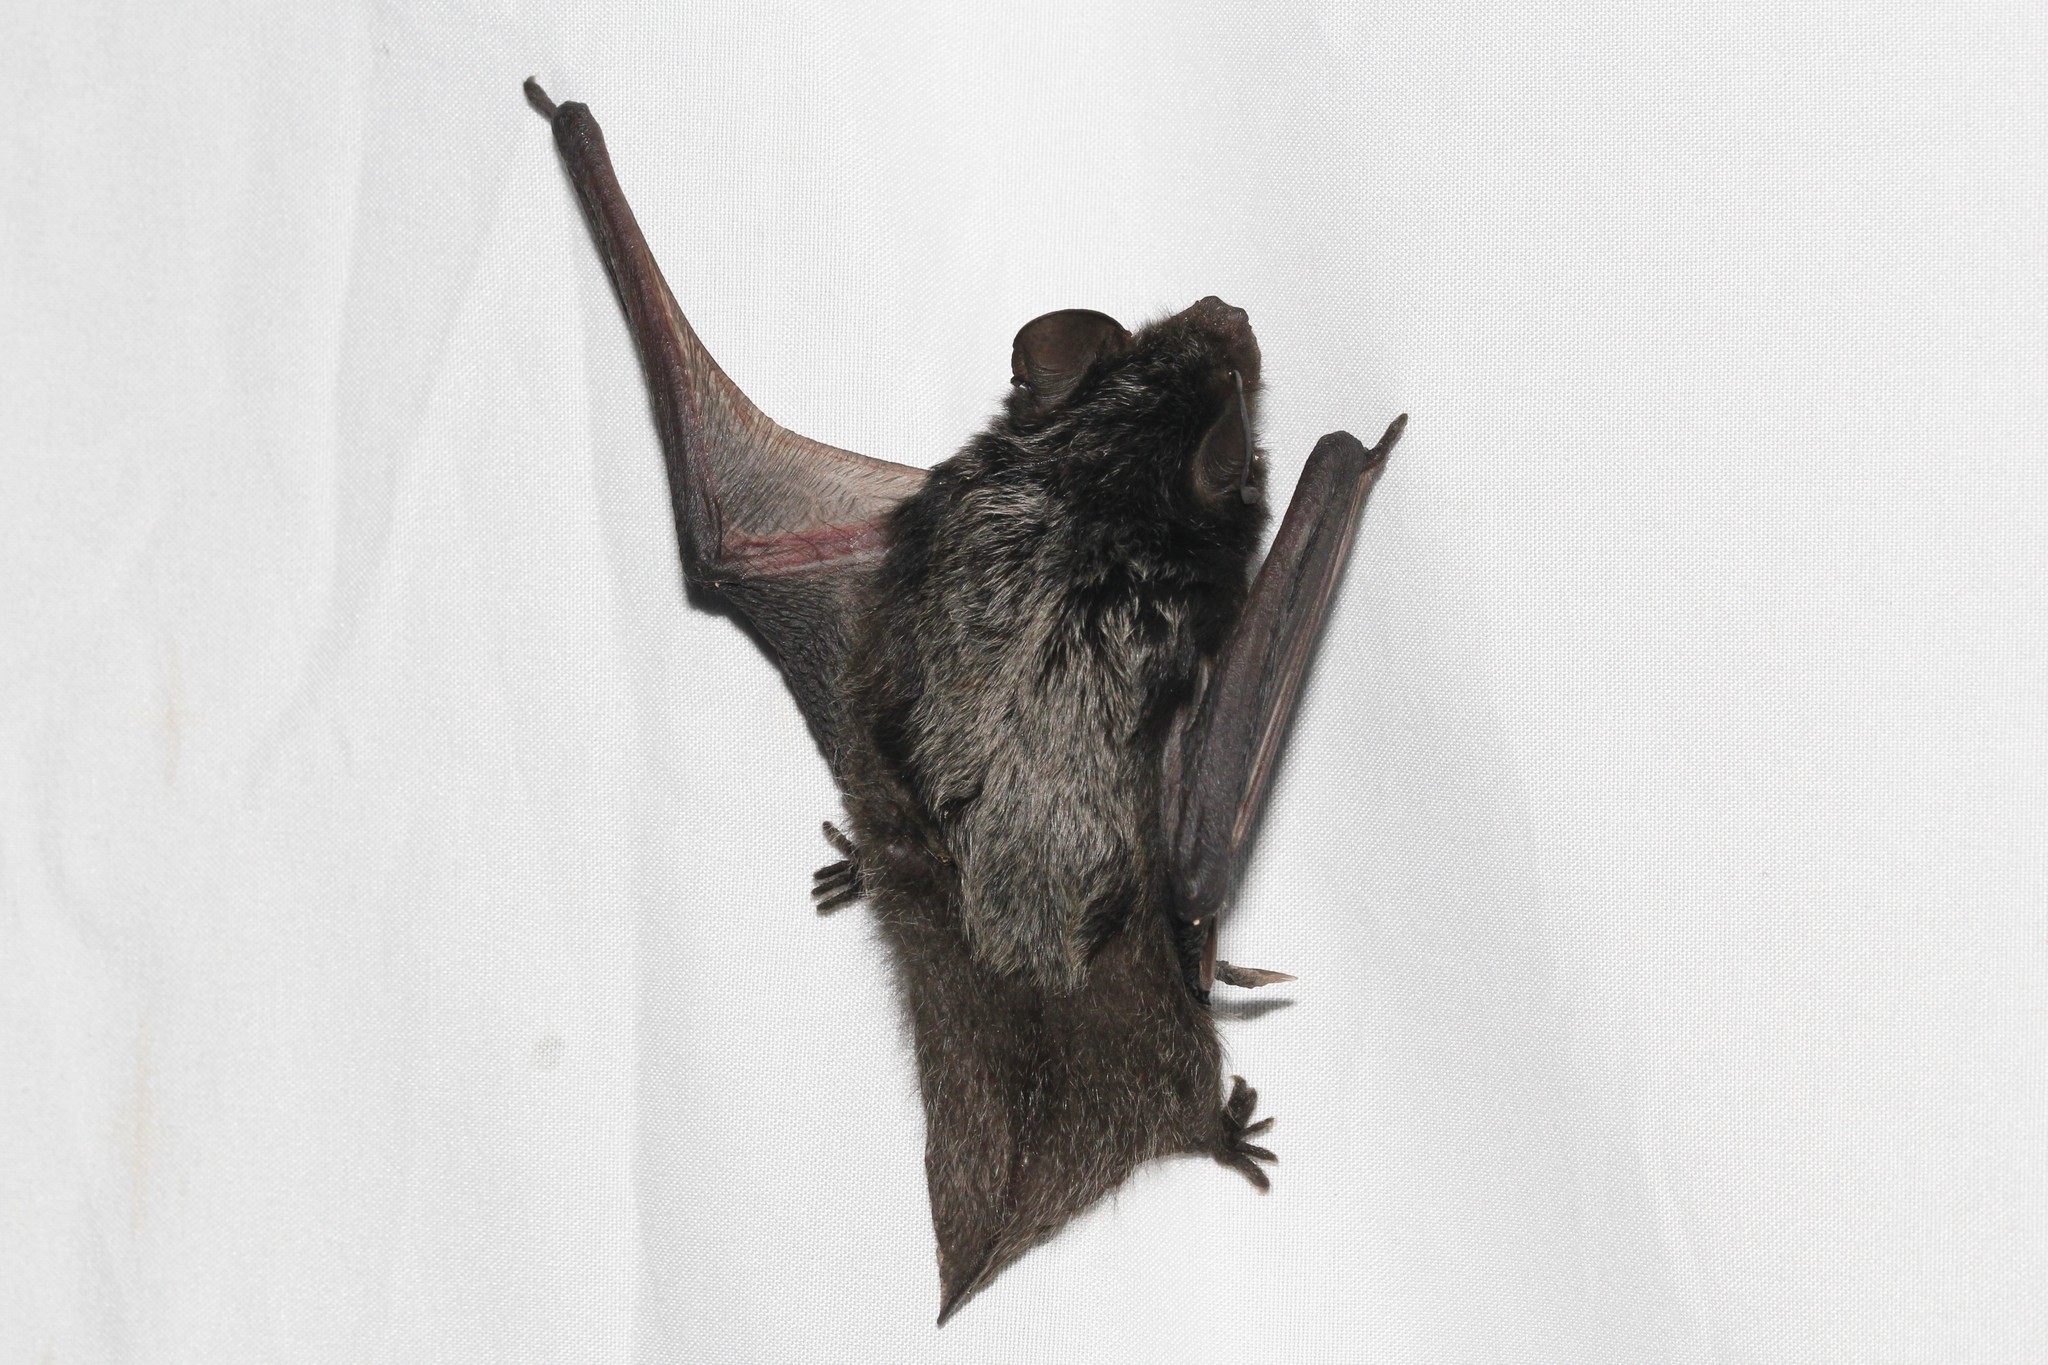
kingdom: Animalia
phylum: Chordata
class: Mammalia
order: Chiroptera
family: Vespertilionidae
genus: Lasionycteris
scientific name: Lasionycteris noctivagans
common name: Silver-haired bat
